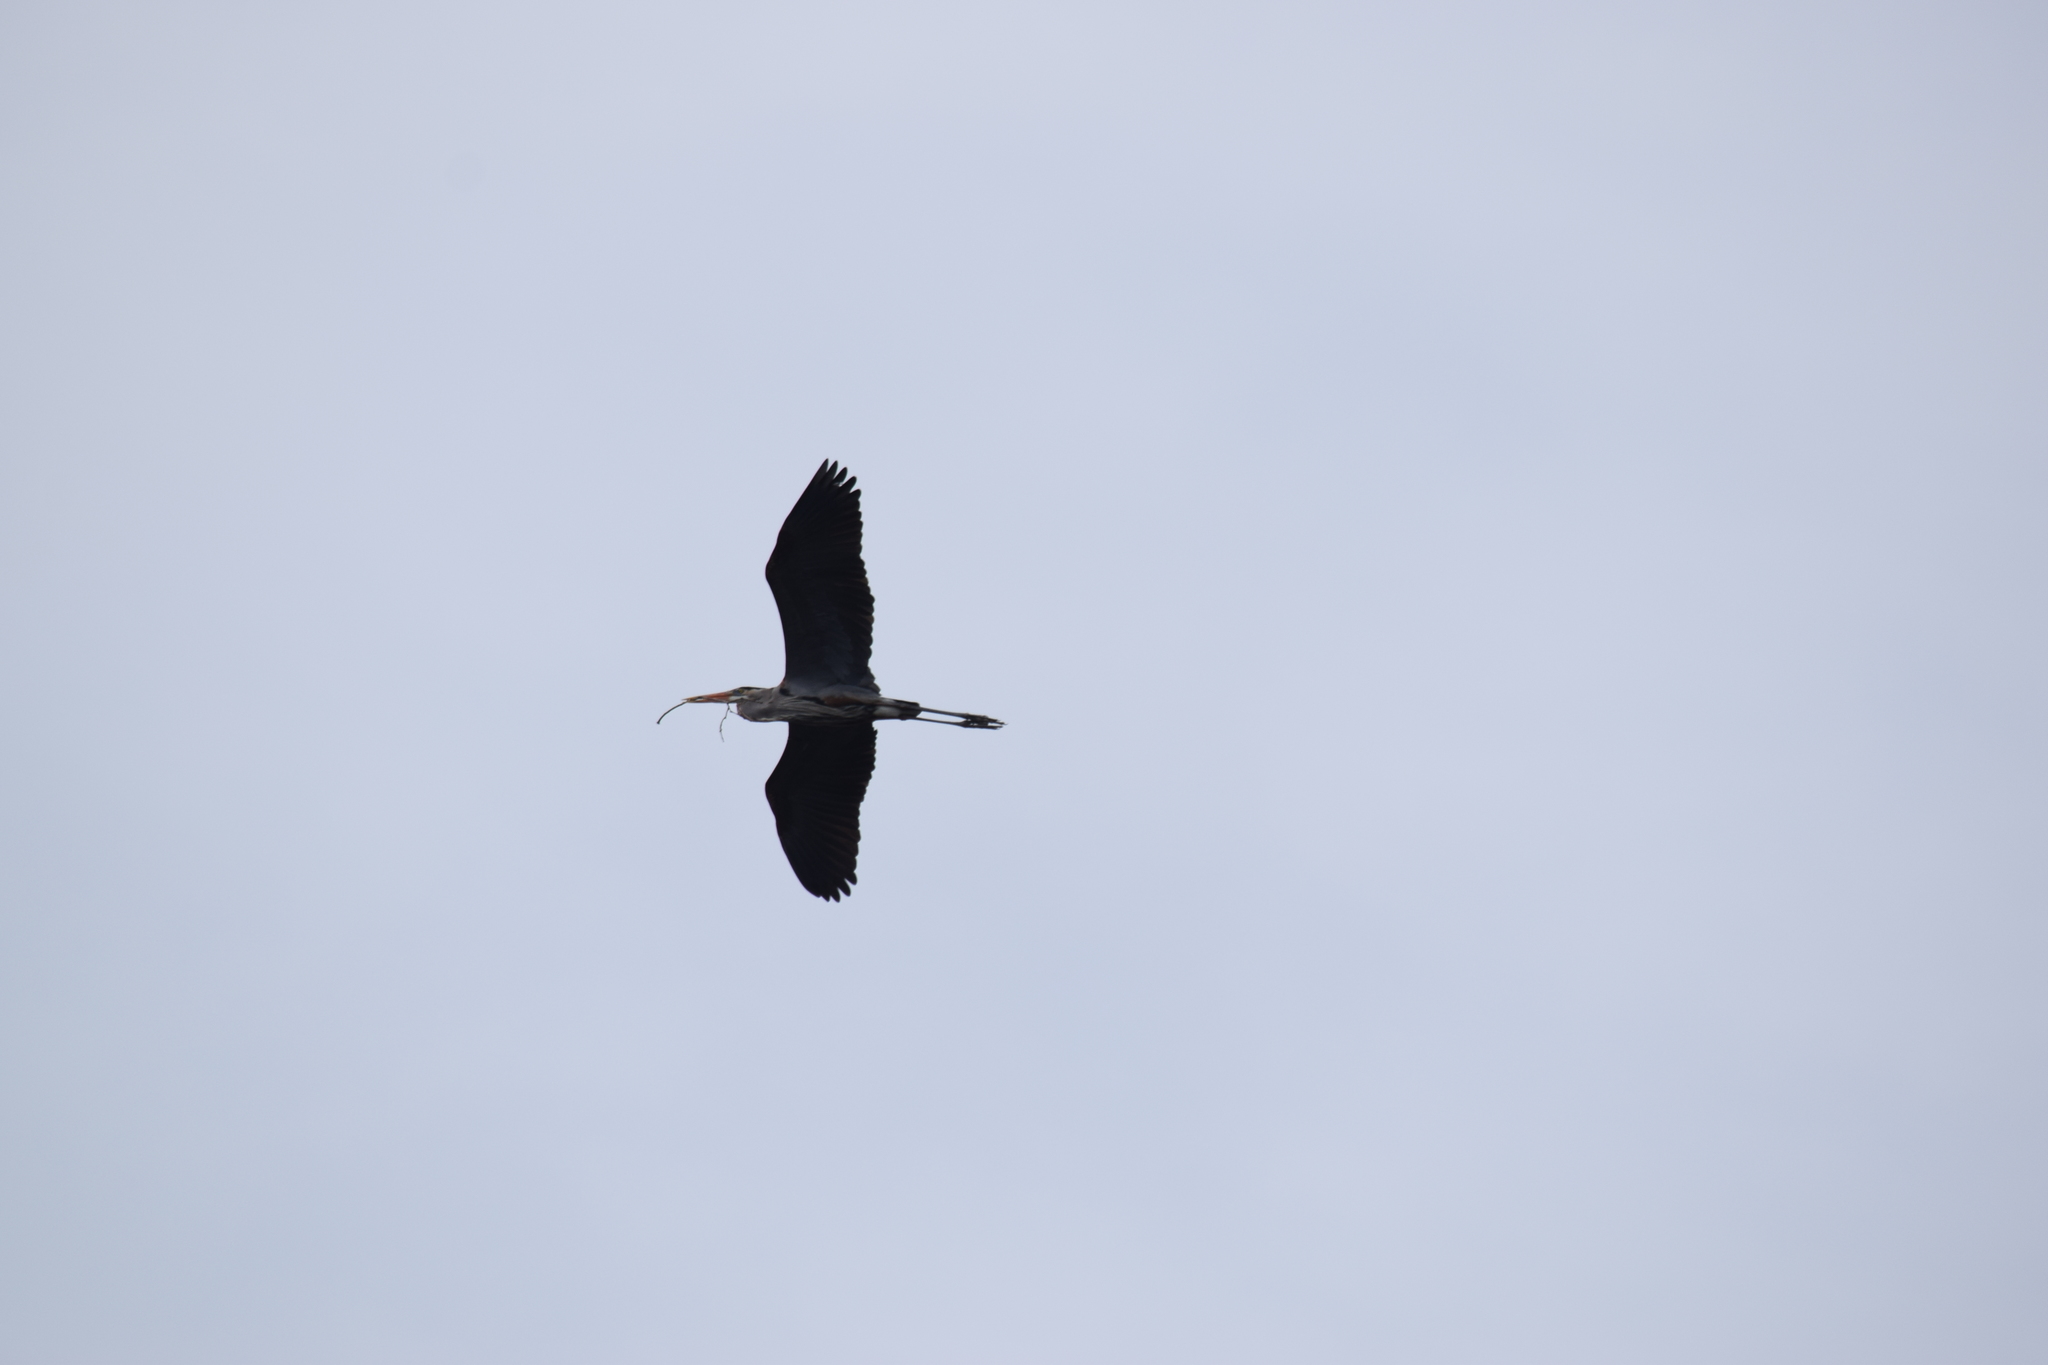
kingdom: Animalia
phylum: Chordata
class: Aves
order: Pelecaniformes
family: Ardeidae
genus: Ardea
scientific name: Ardea herodias
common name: Great blue heron
